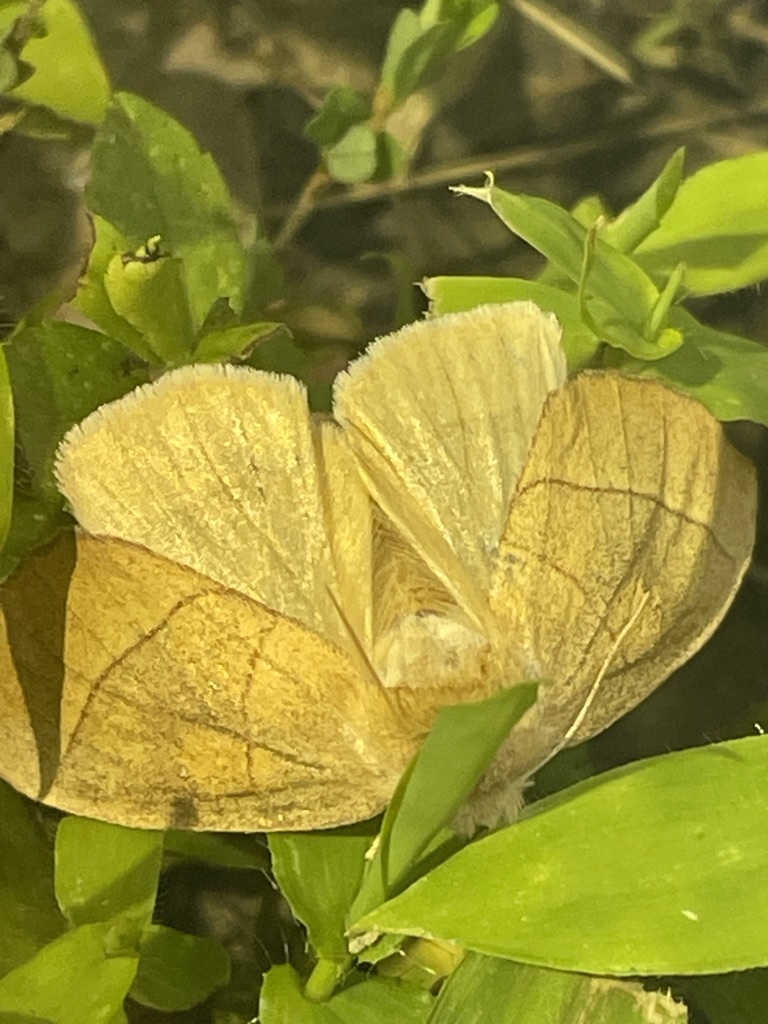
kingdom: Animalia
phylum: Arthropoda
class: Insecta
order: Lepidoptera
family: Notodontidae
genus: Nadata
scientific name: Nadata gibbosa
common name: White-dotted prominent
